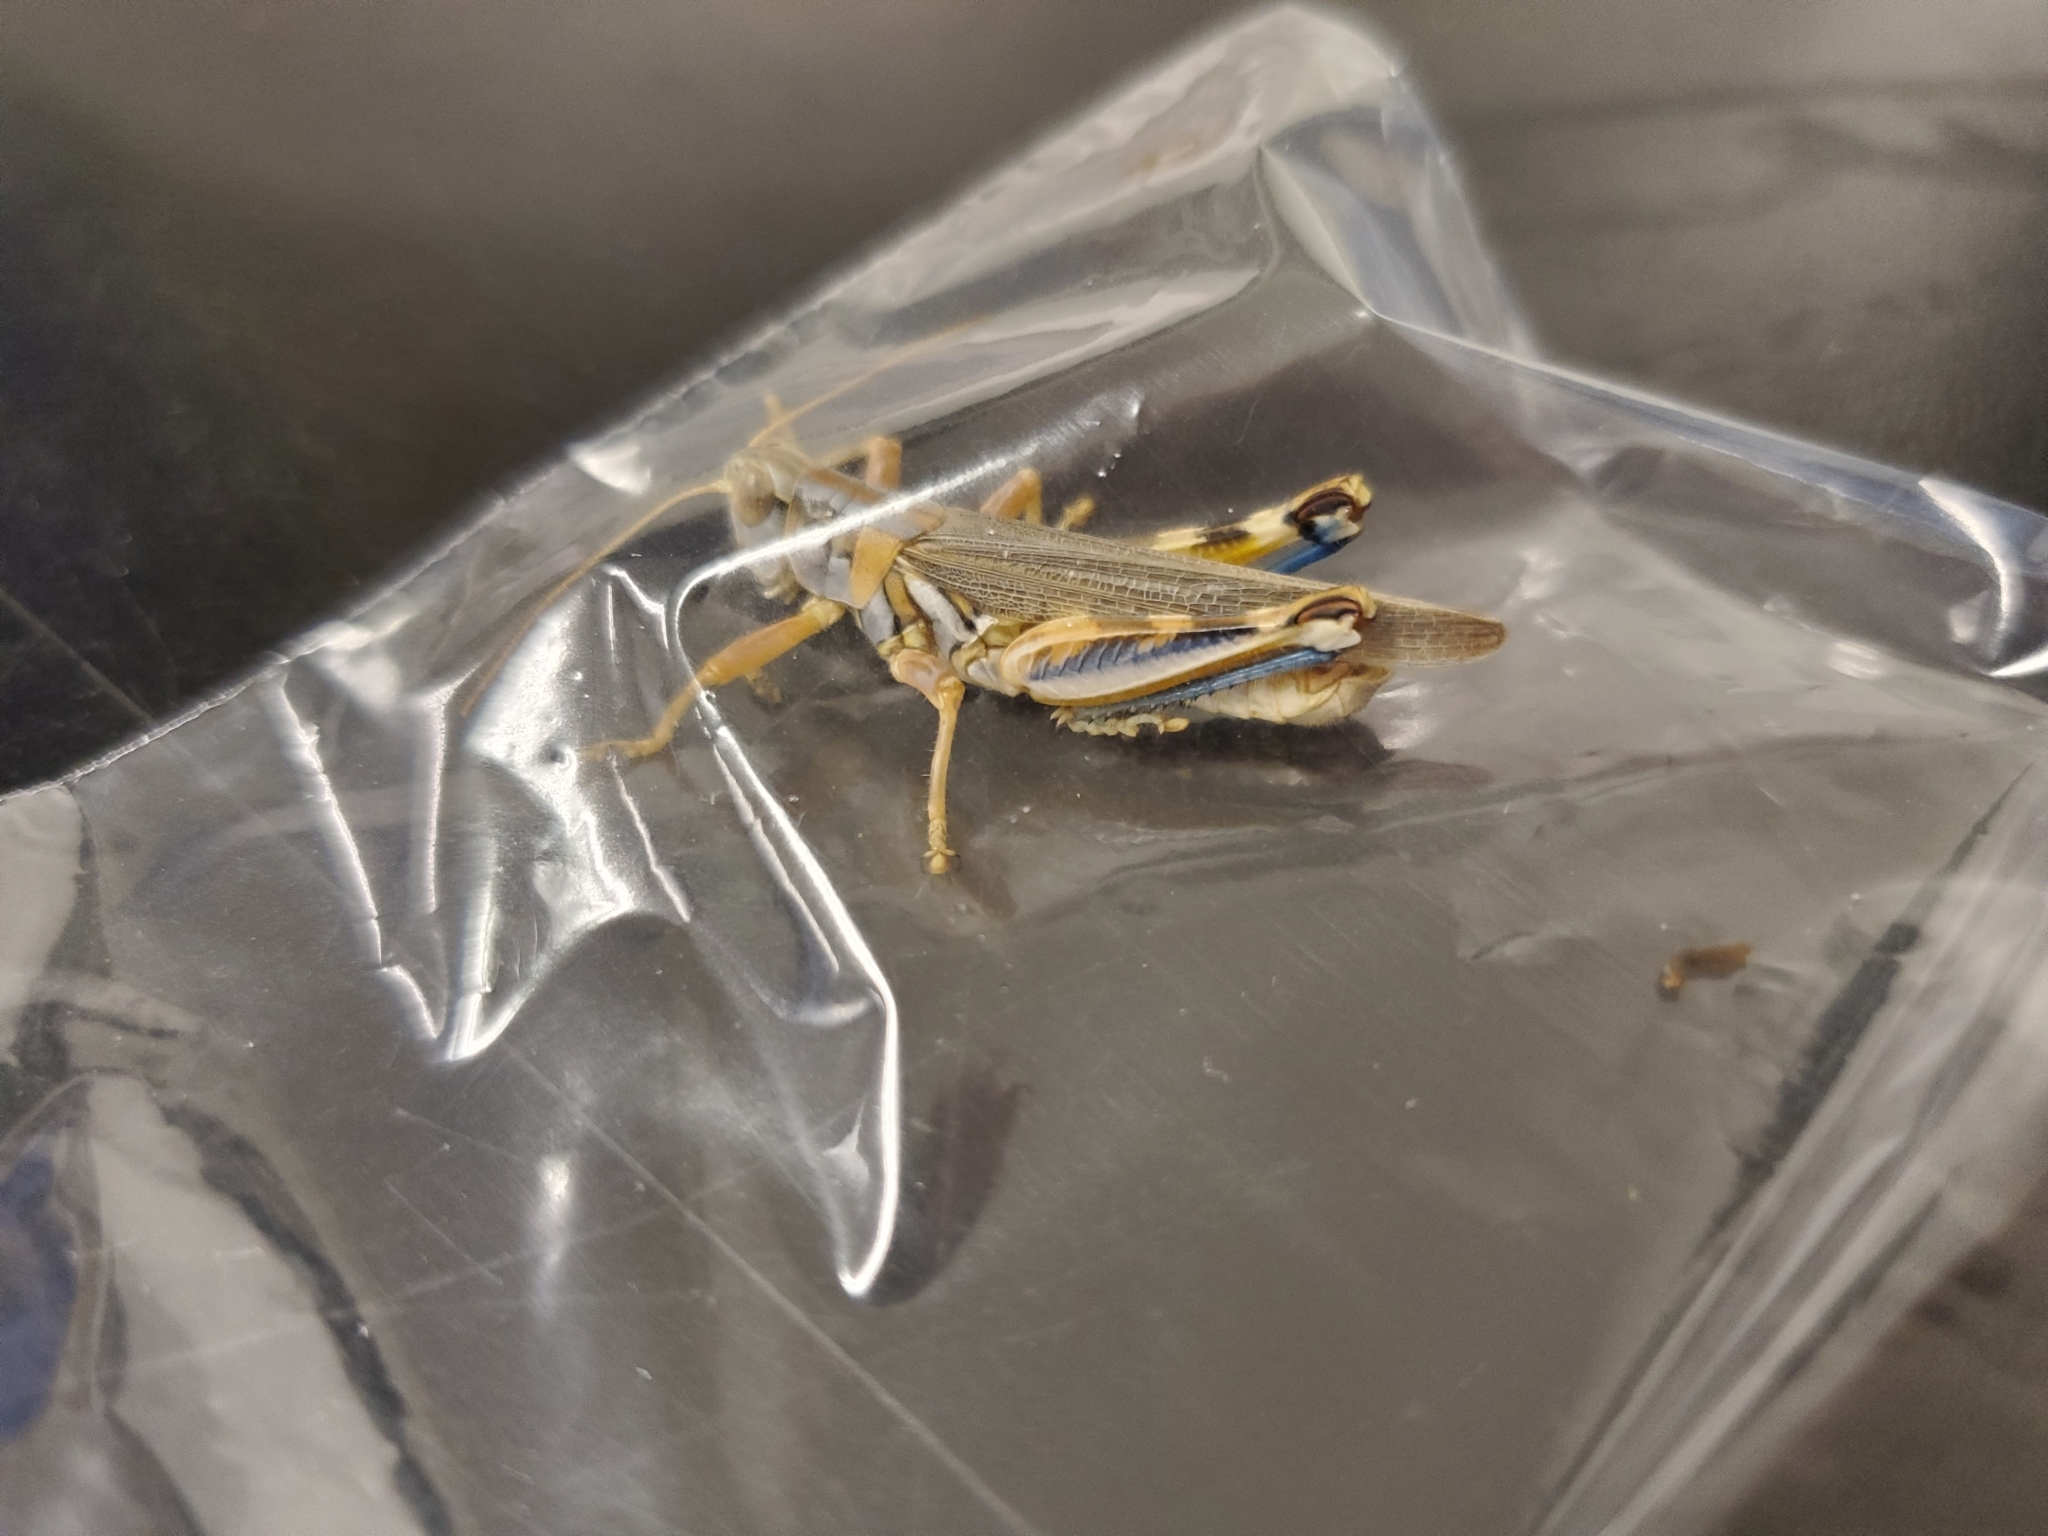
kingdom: Animalia
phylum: Arthropoda
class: Insecta
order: Orthoptera
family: Acrididae
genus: Melanoplus
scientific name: Melanoplus flavidus
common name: Blue-legged locust
